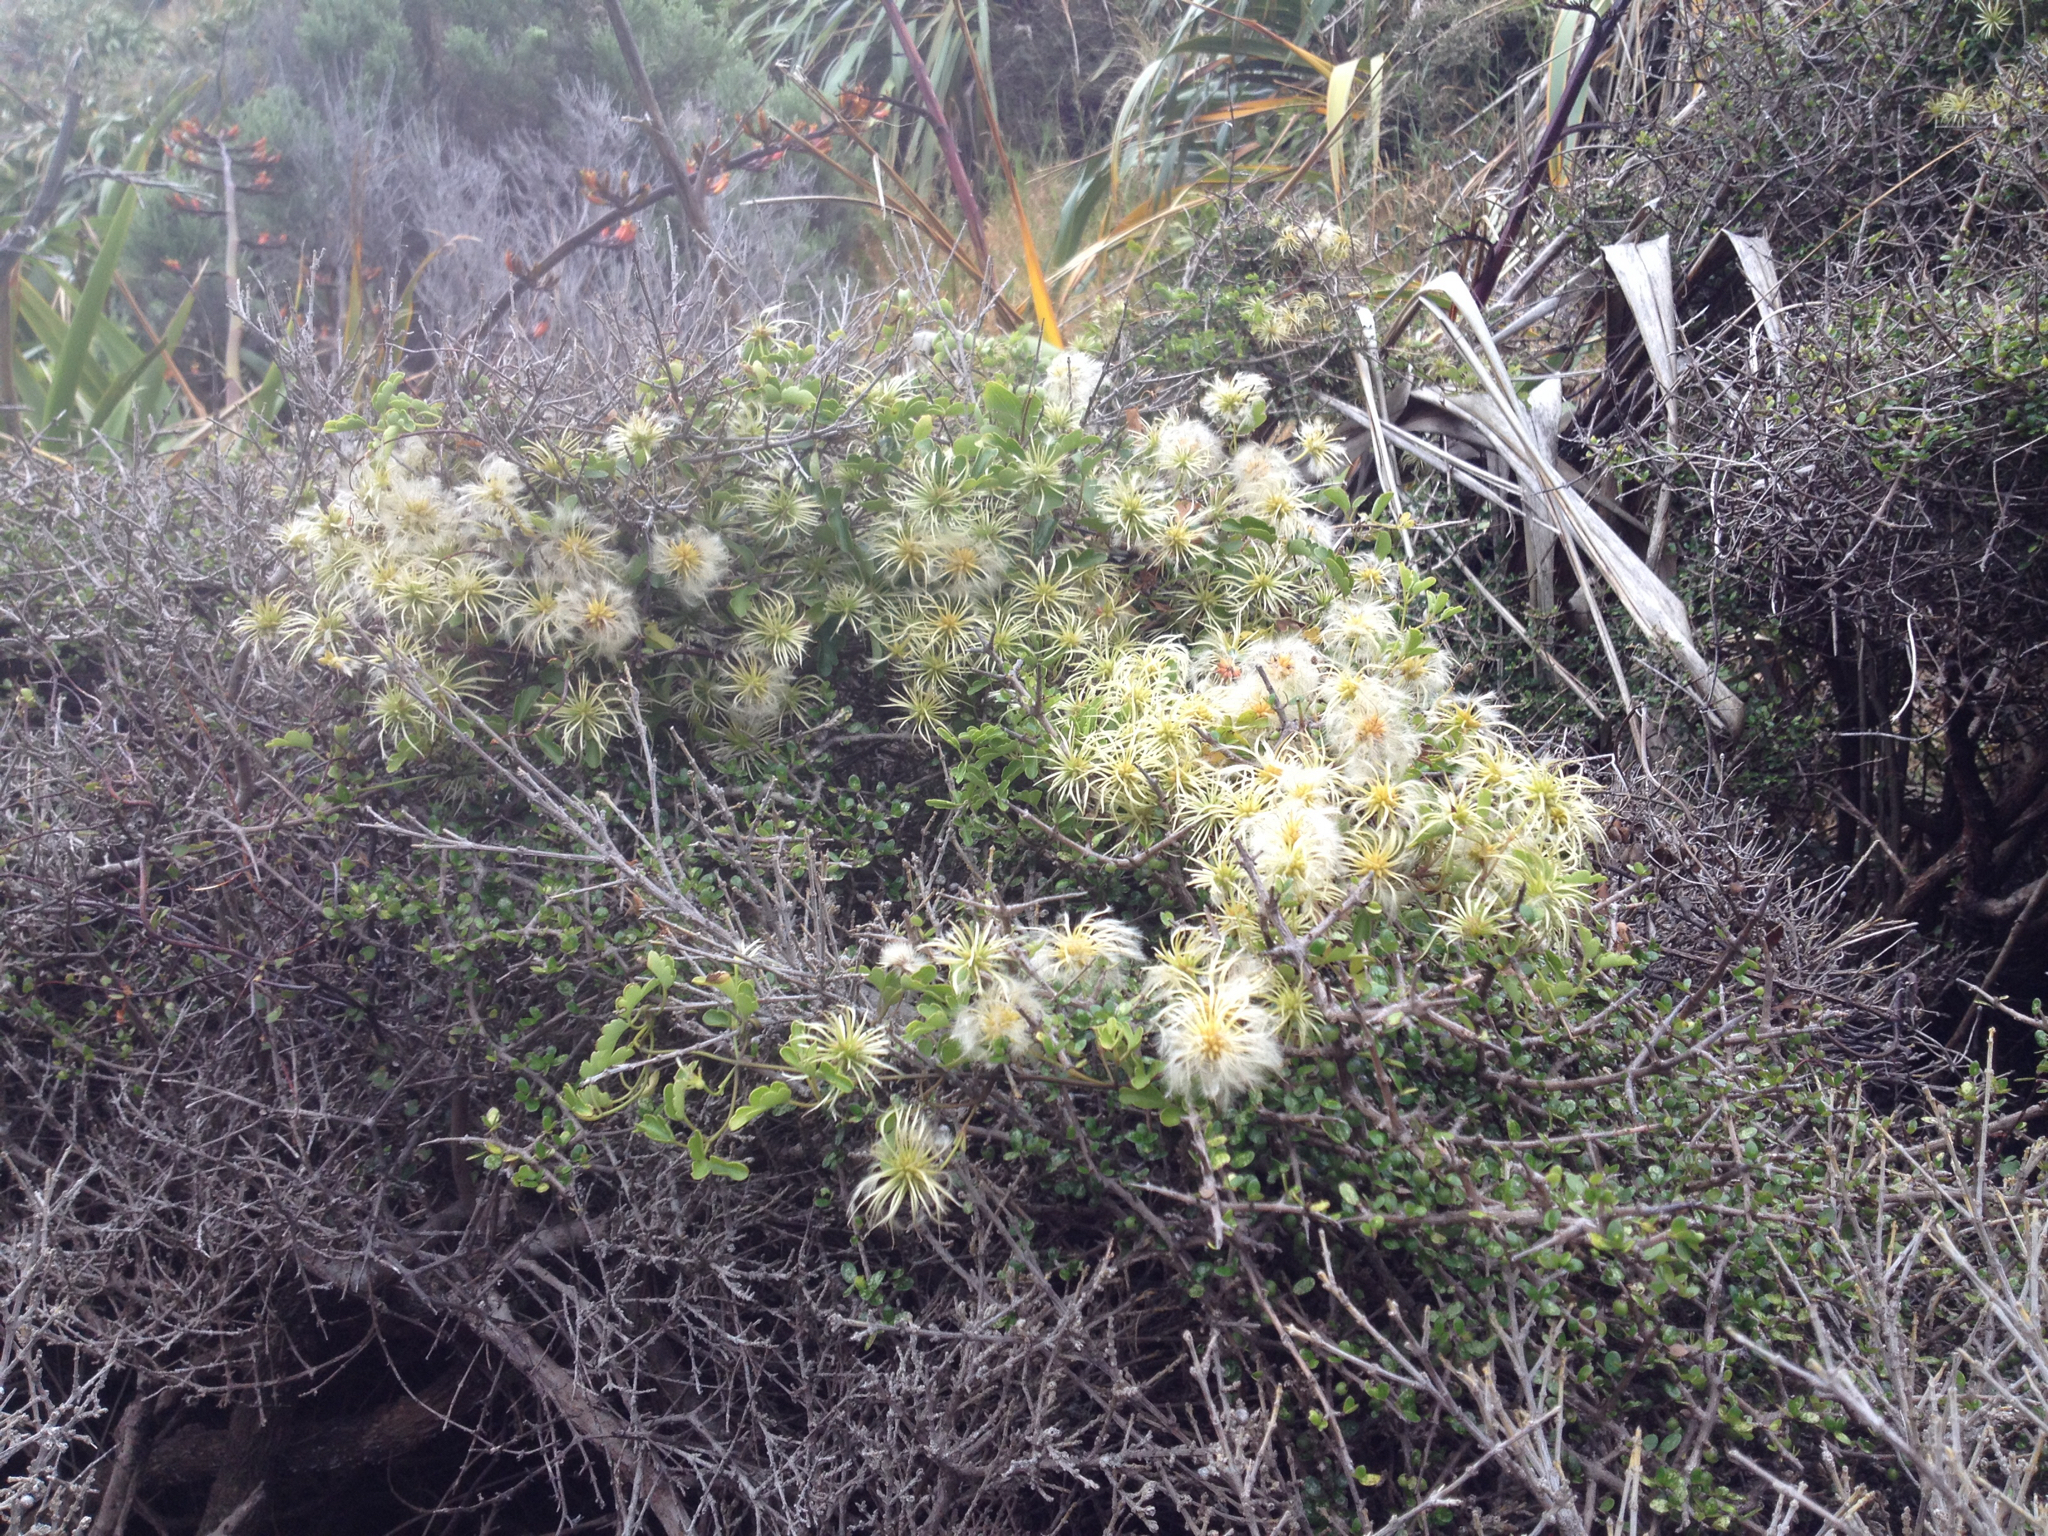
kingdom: Plantae
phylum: Tracheophyta
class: Magnoliopsida
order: Ranunculales
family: Ranunculaceae
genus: Clematis
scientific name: Clematis forsteri
